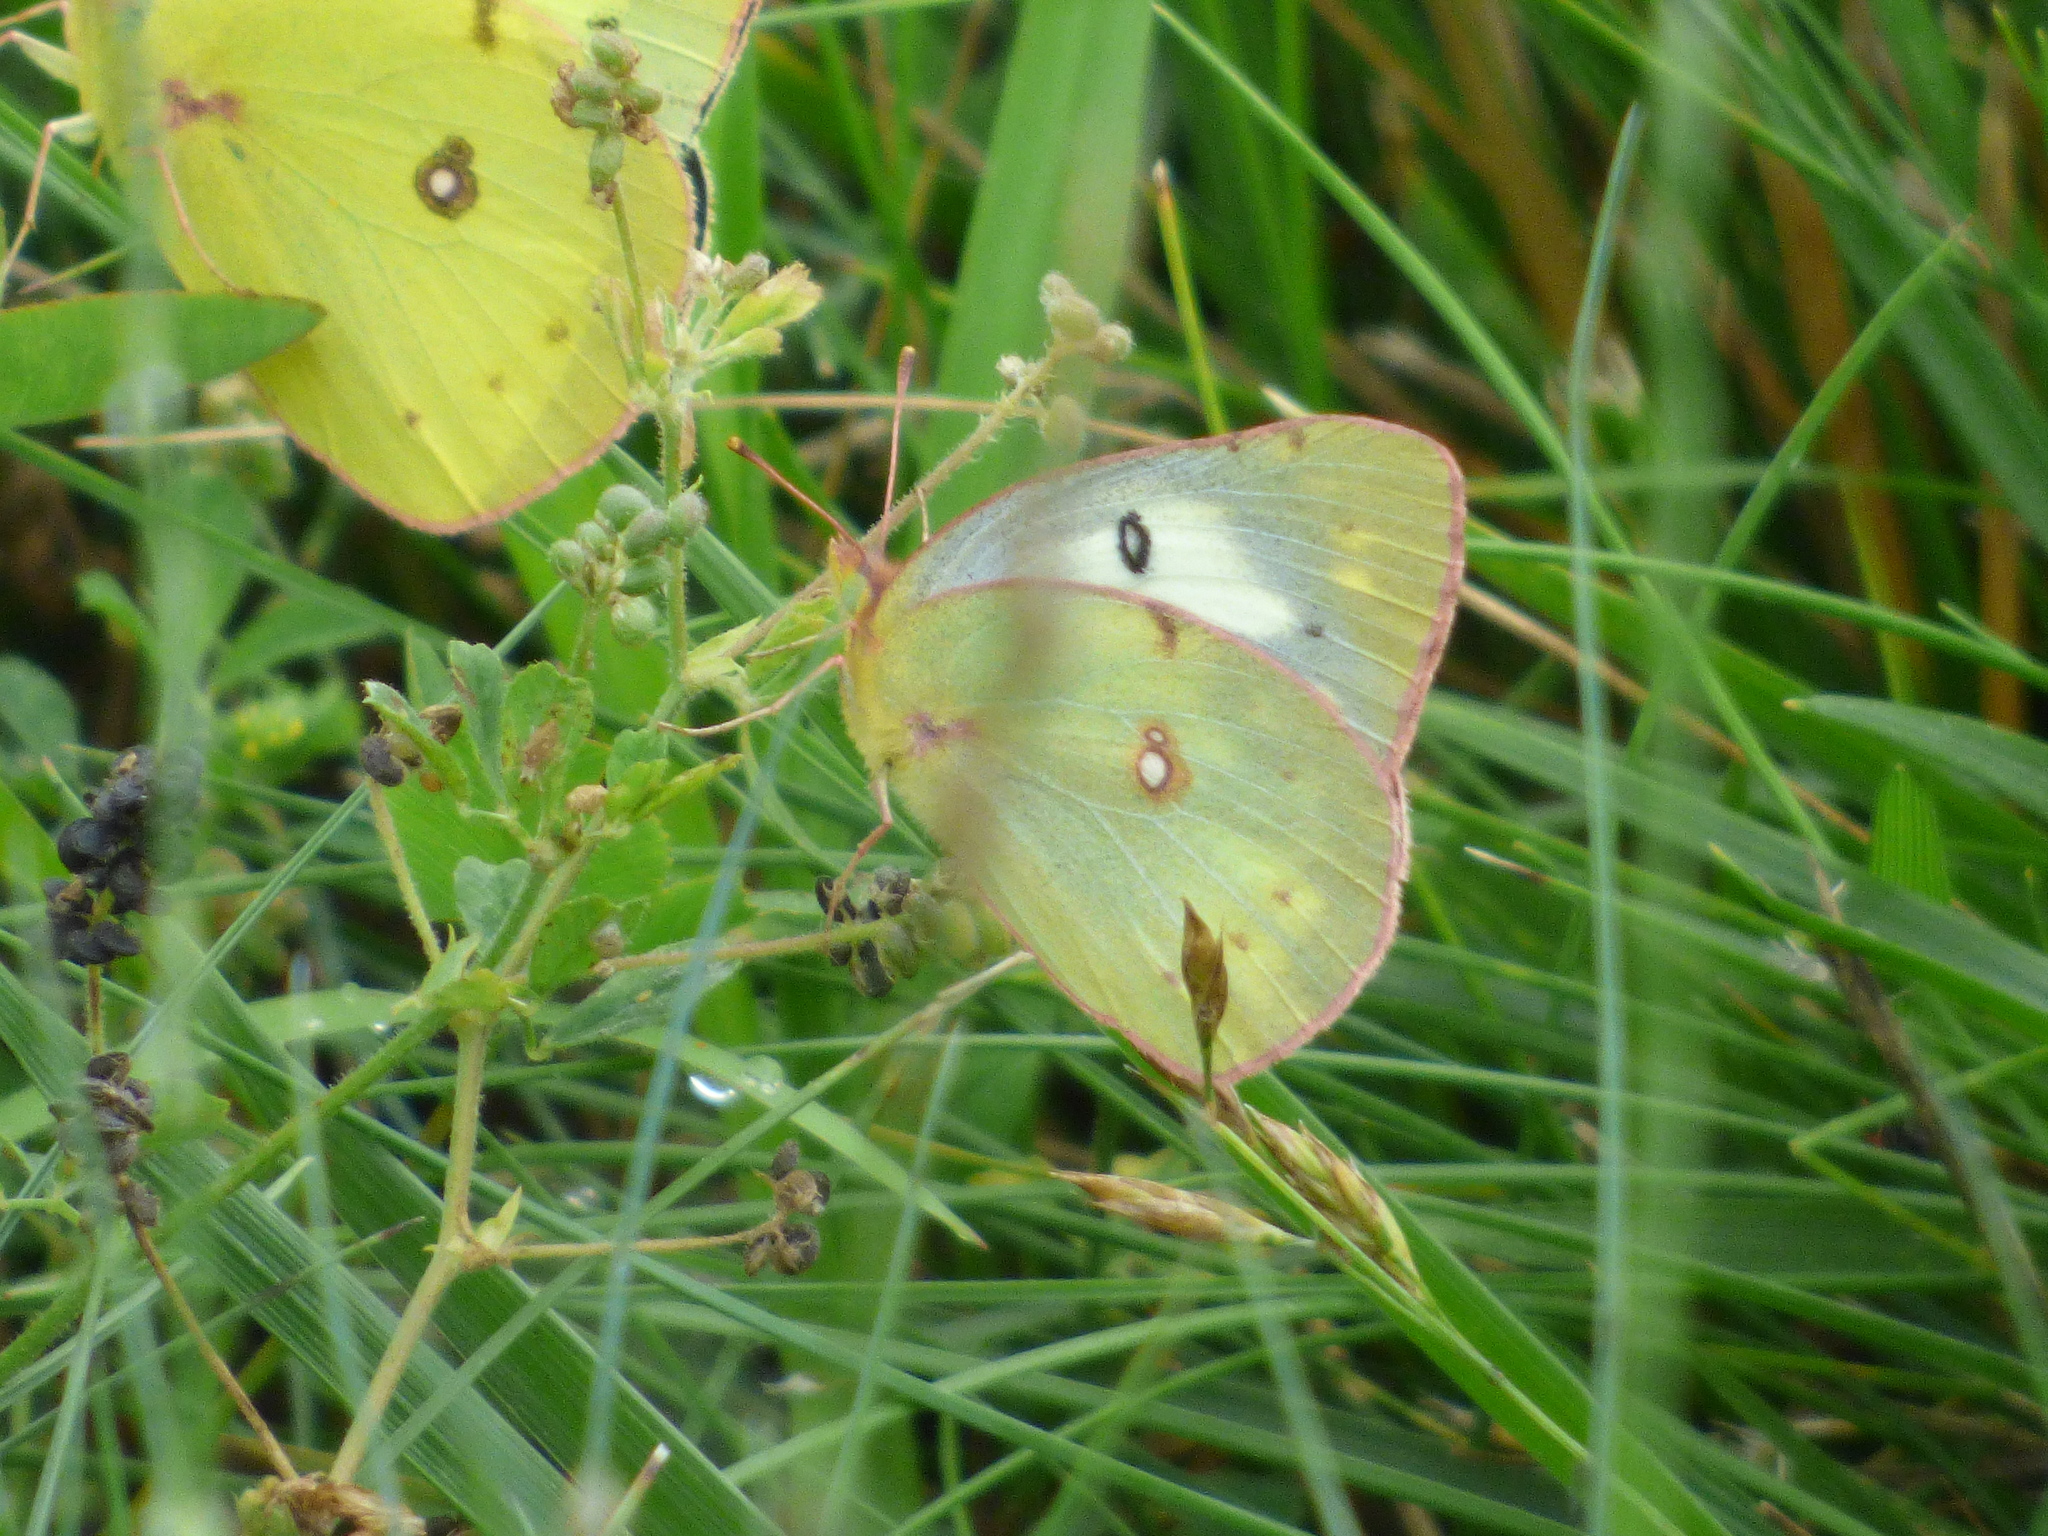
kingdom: Animalia
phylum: Arthropoda
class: Insecta
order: Lepidoptera
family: Pieridae
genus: Colias
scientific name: Colias philodice
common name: Clouded sulphur
